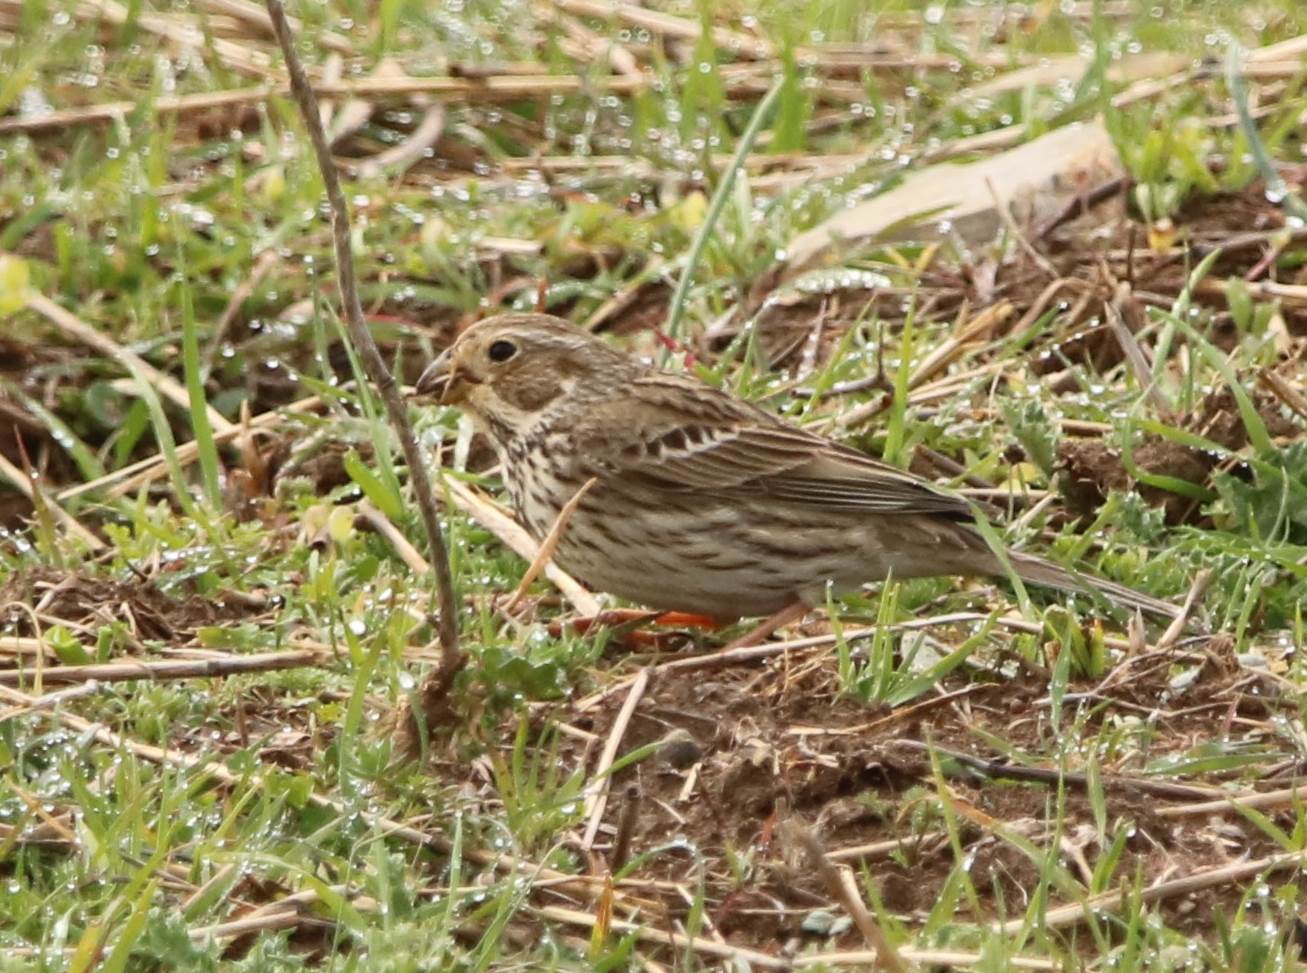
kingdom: Animalia
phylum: Chordata
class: Aves
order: Passeriformes
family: Emberizidae
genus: Emberiza
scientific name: Emberiza calandra
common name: Corn bunting
